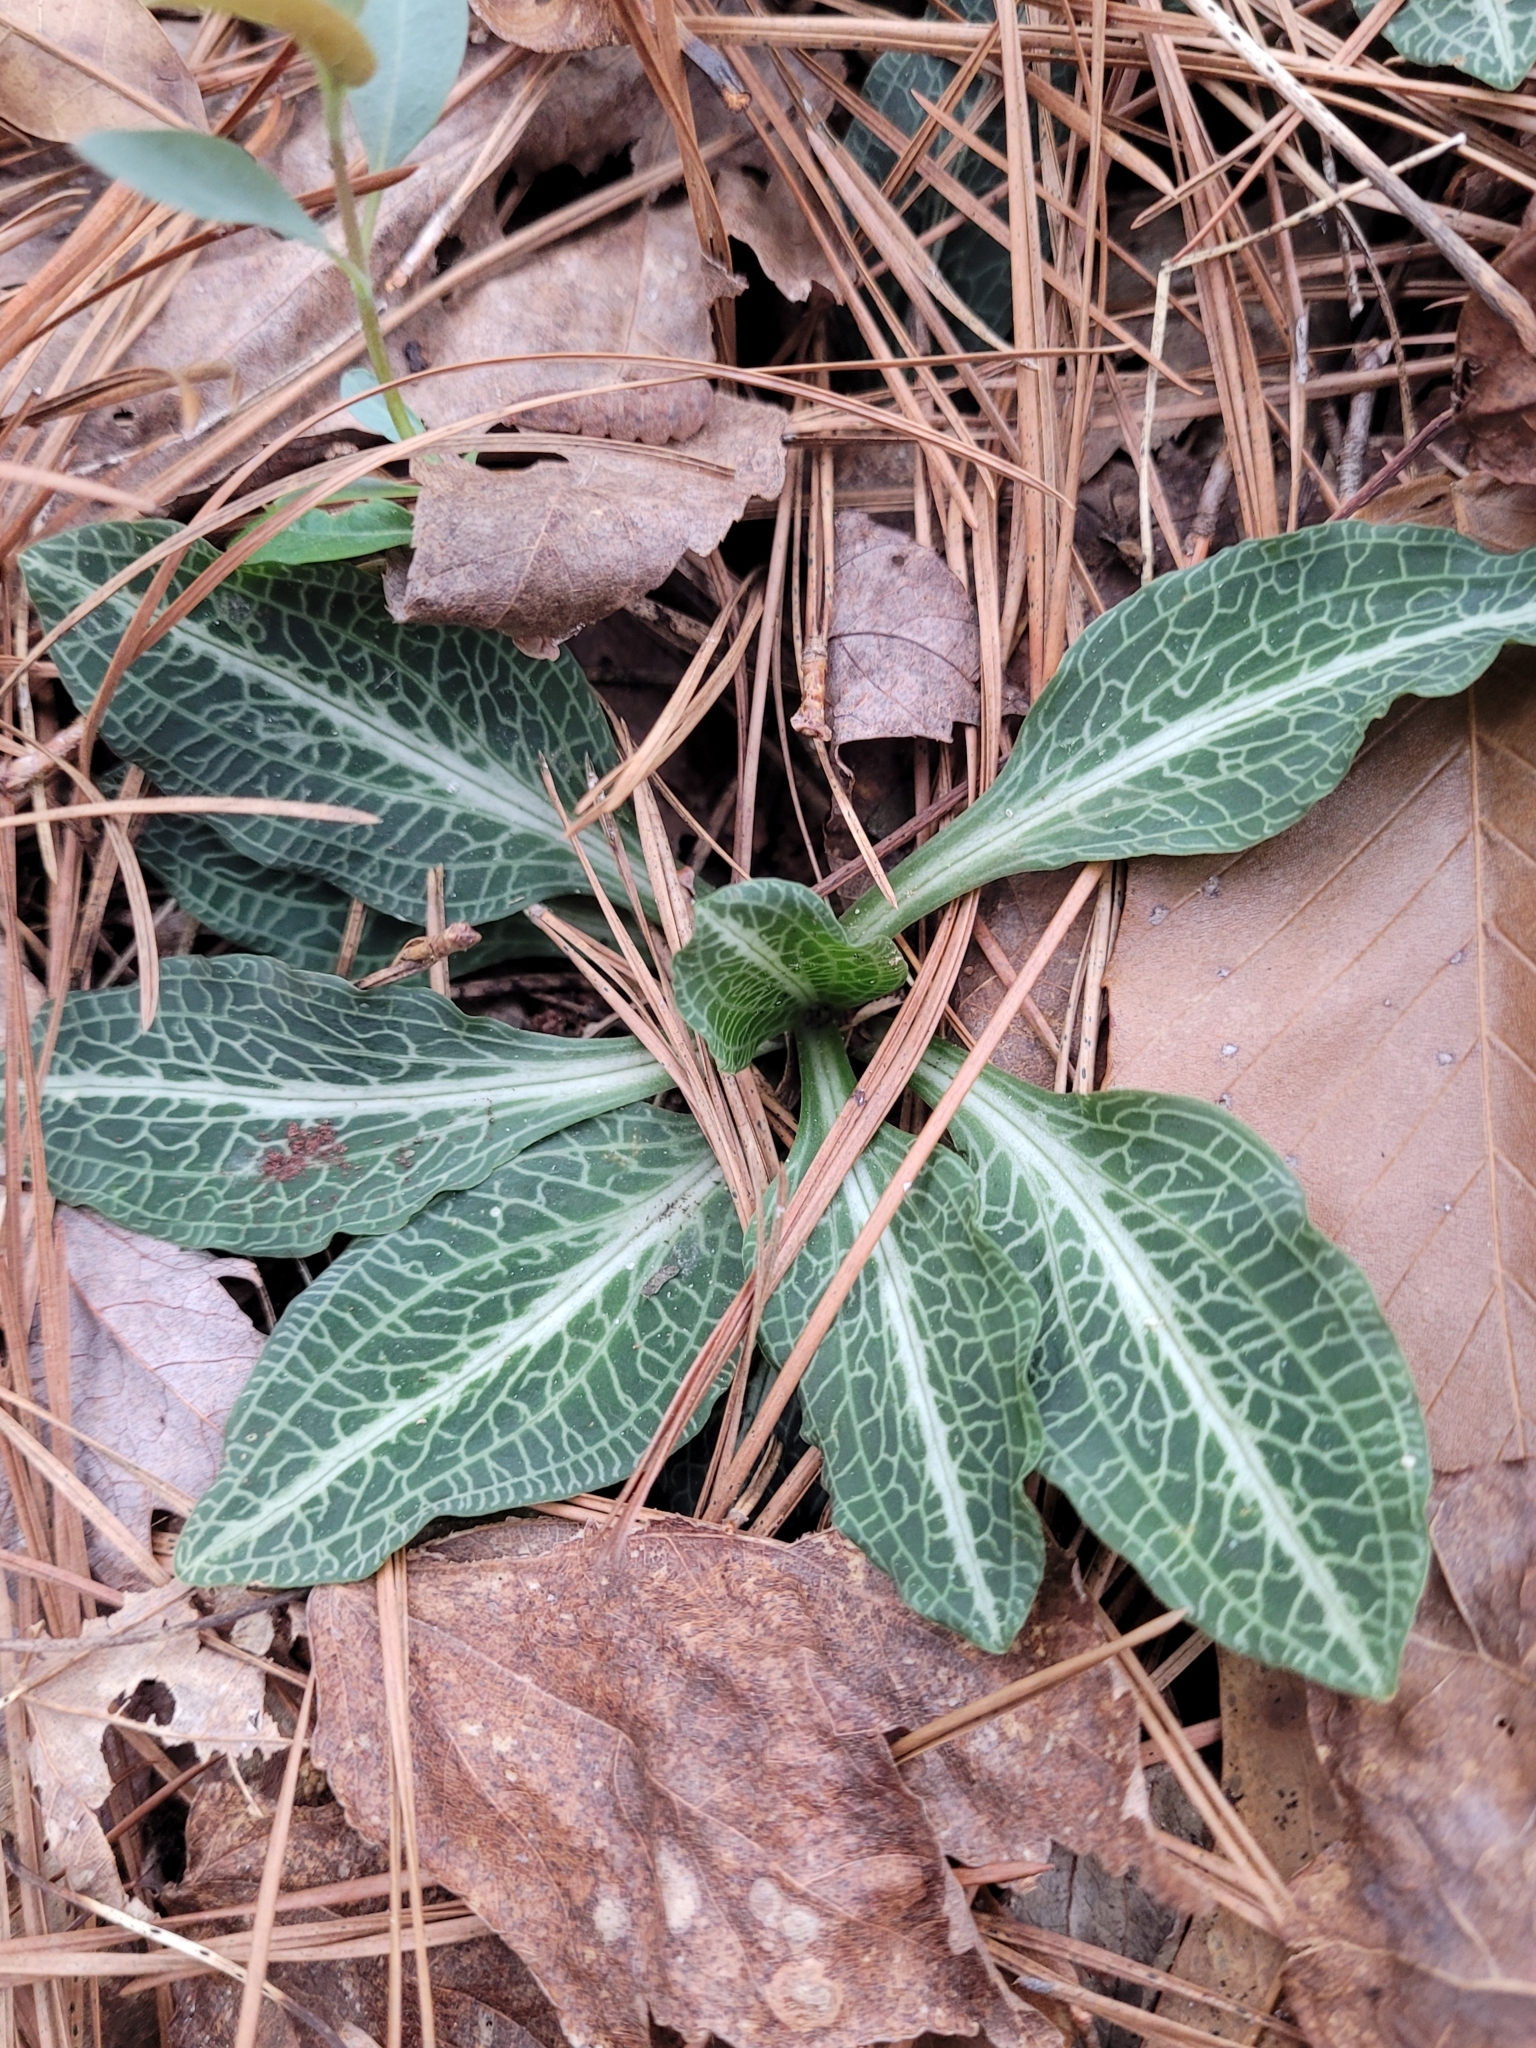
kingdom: Plantae
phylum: Tracheophyta
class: Liliopsida
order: Asparagales
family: Orchidaceae
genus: Goodyera
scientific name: Goodyera pubescens
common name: Downy rattlesnake-plantain
